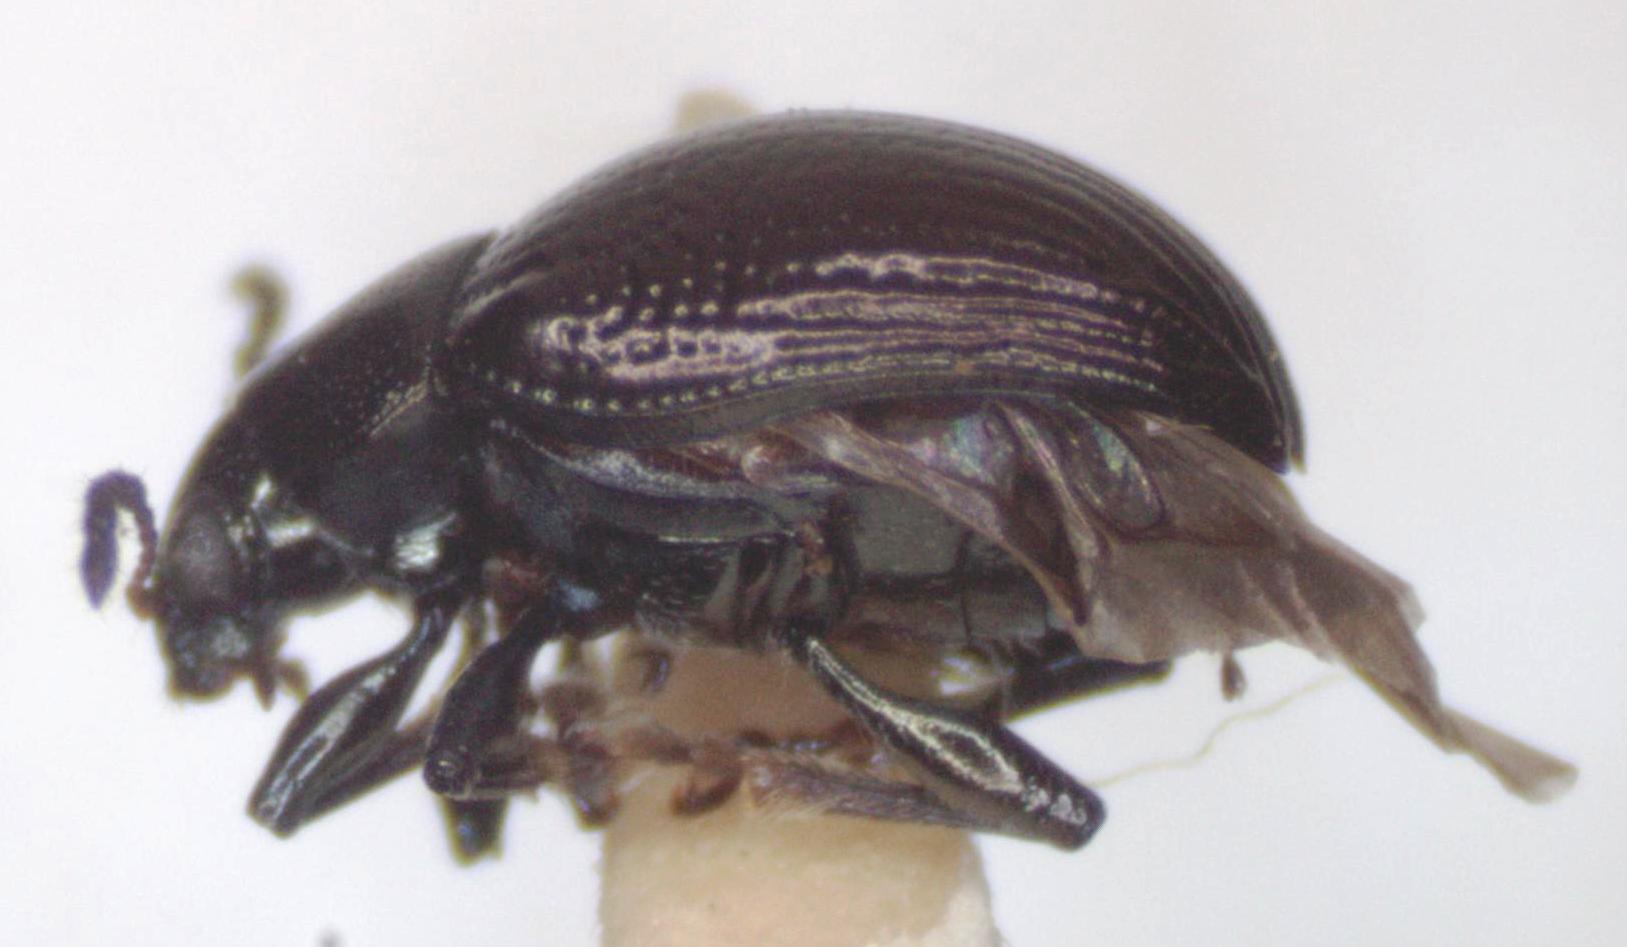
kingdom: Animalia
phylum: Arthropoda
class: Insecta
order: Coleoptera
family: Chrysomelidae
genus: Brachypnoea
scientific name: Brachypnoea
